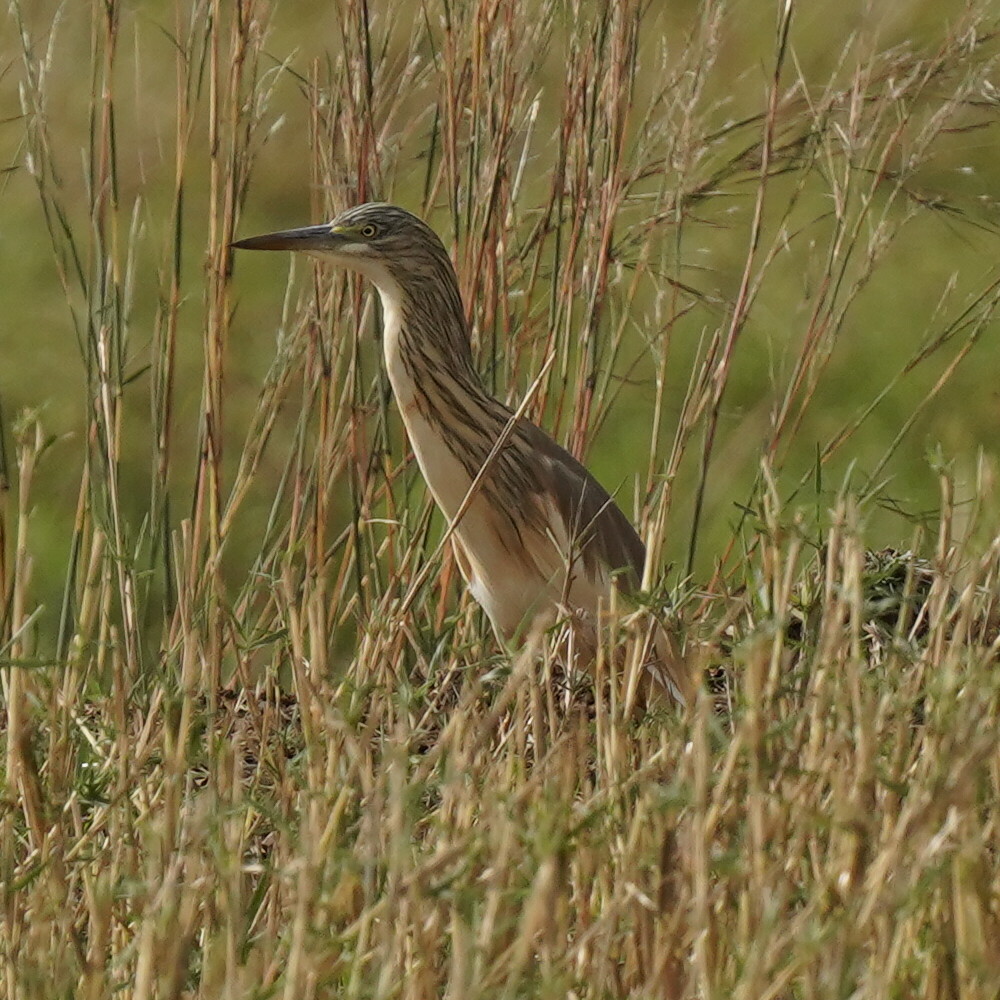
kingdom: Animalia
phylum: Chordata
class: Aves
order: Pelecaniformes
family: Ardeidae
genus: Ardeola
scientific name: Ardeola ralloides
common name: Squacco heron
